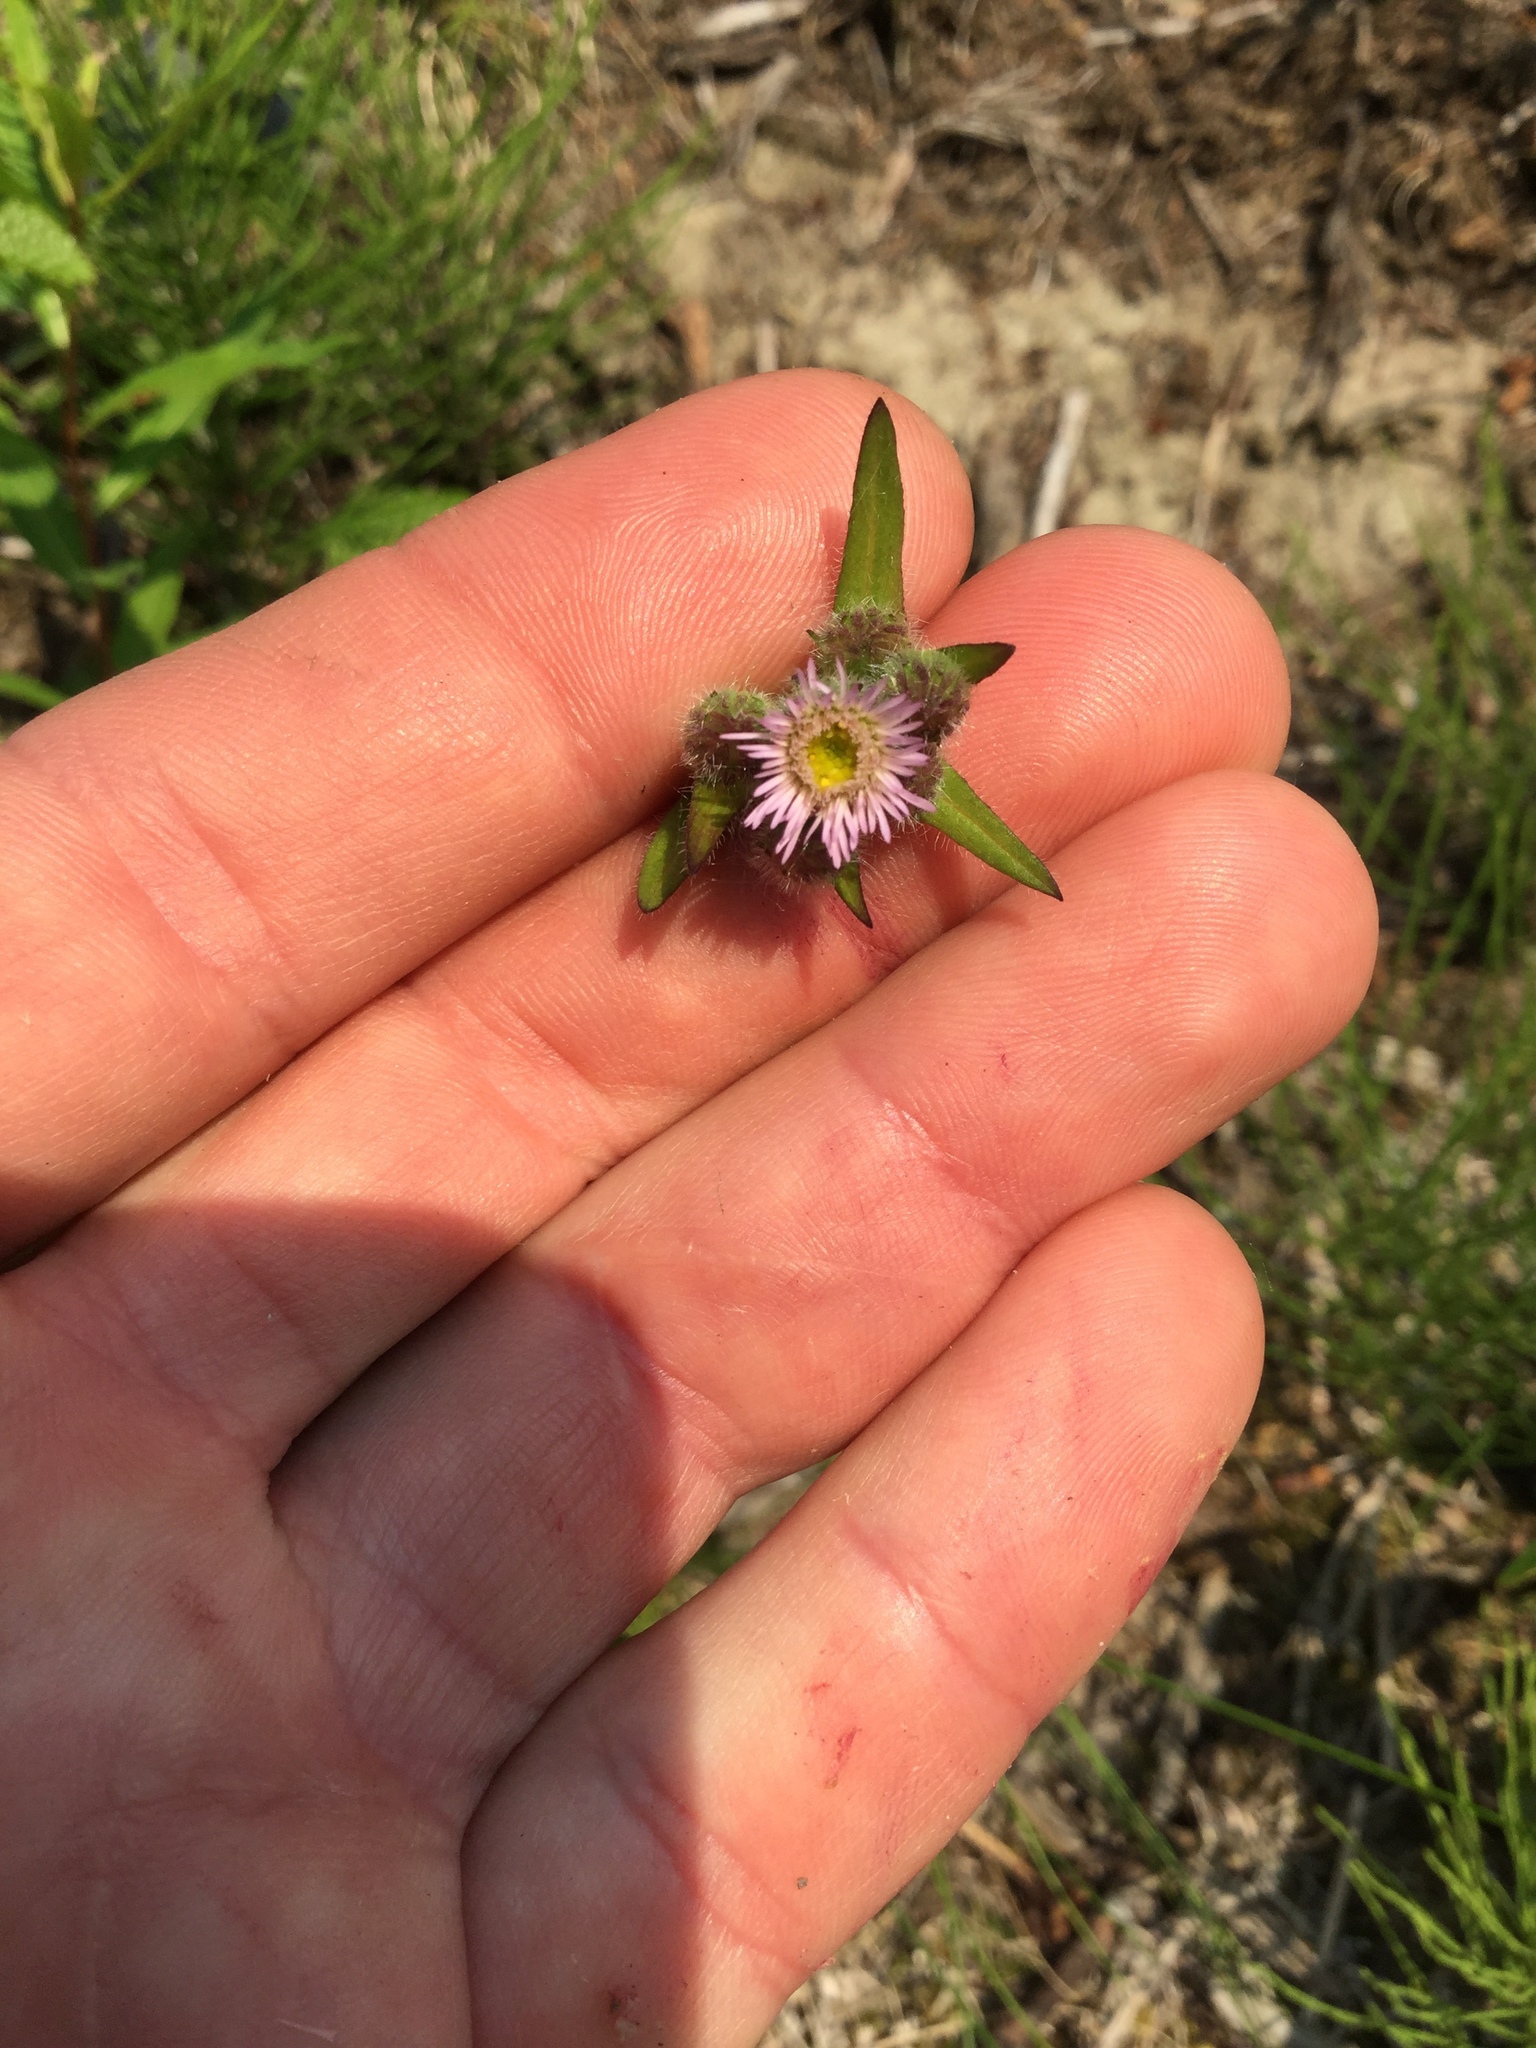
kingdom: Plantae
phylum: Tracheophyta
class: Magnoliopsida
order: Asterales
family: Asteraceae
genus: Erigeron
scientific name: Erigeron acris
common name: Blue fleabane
